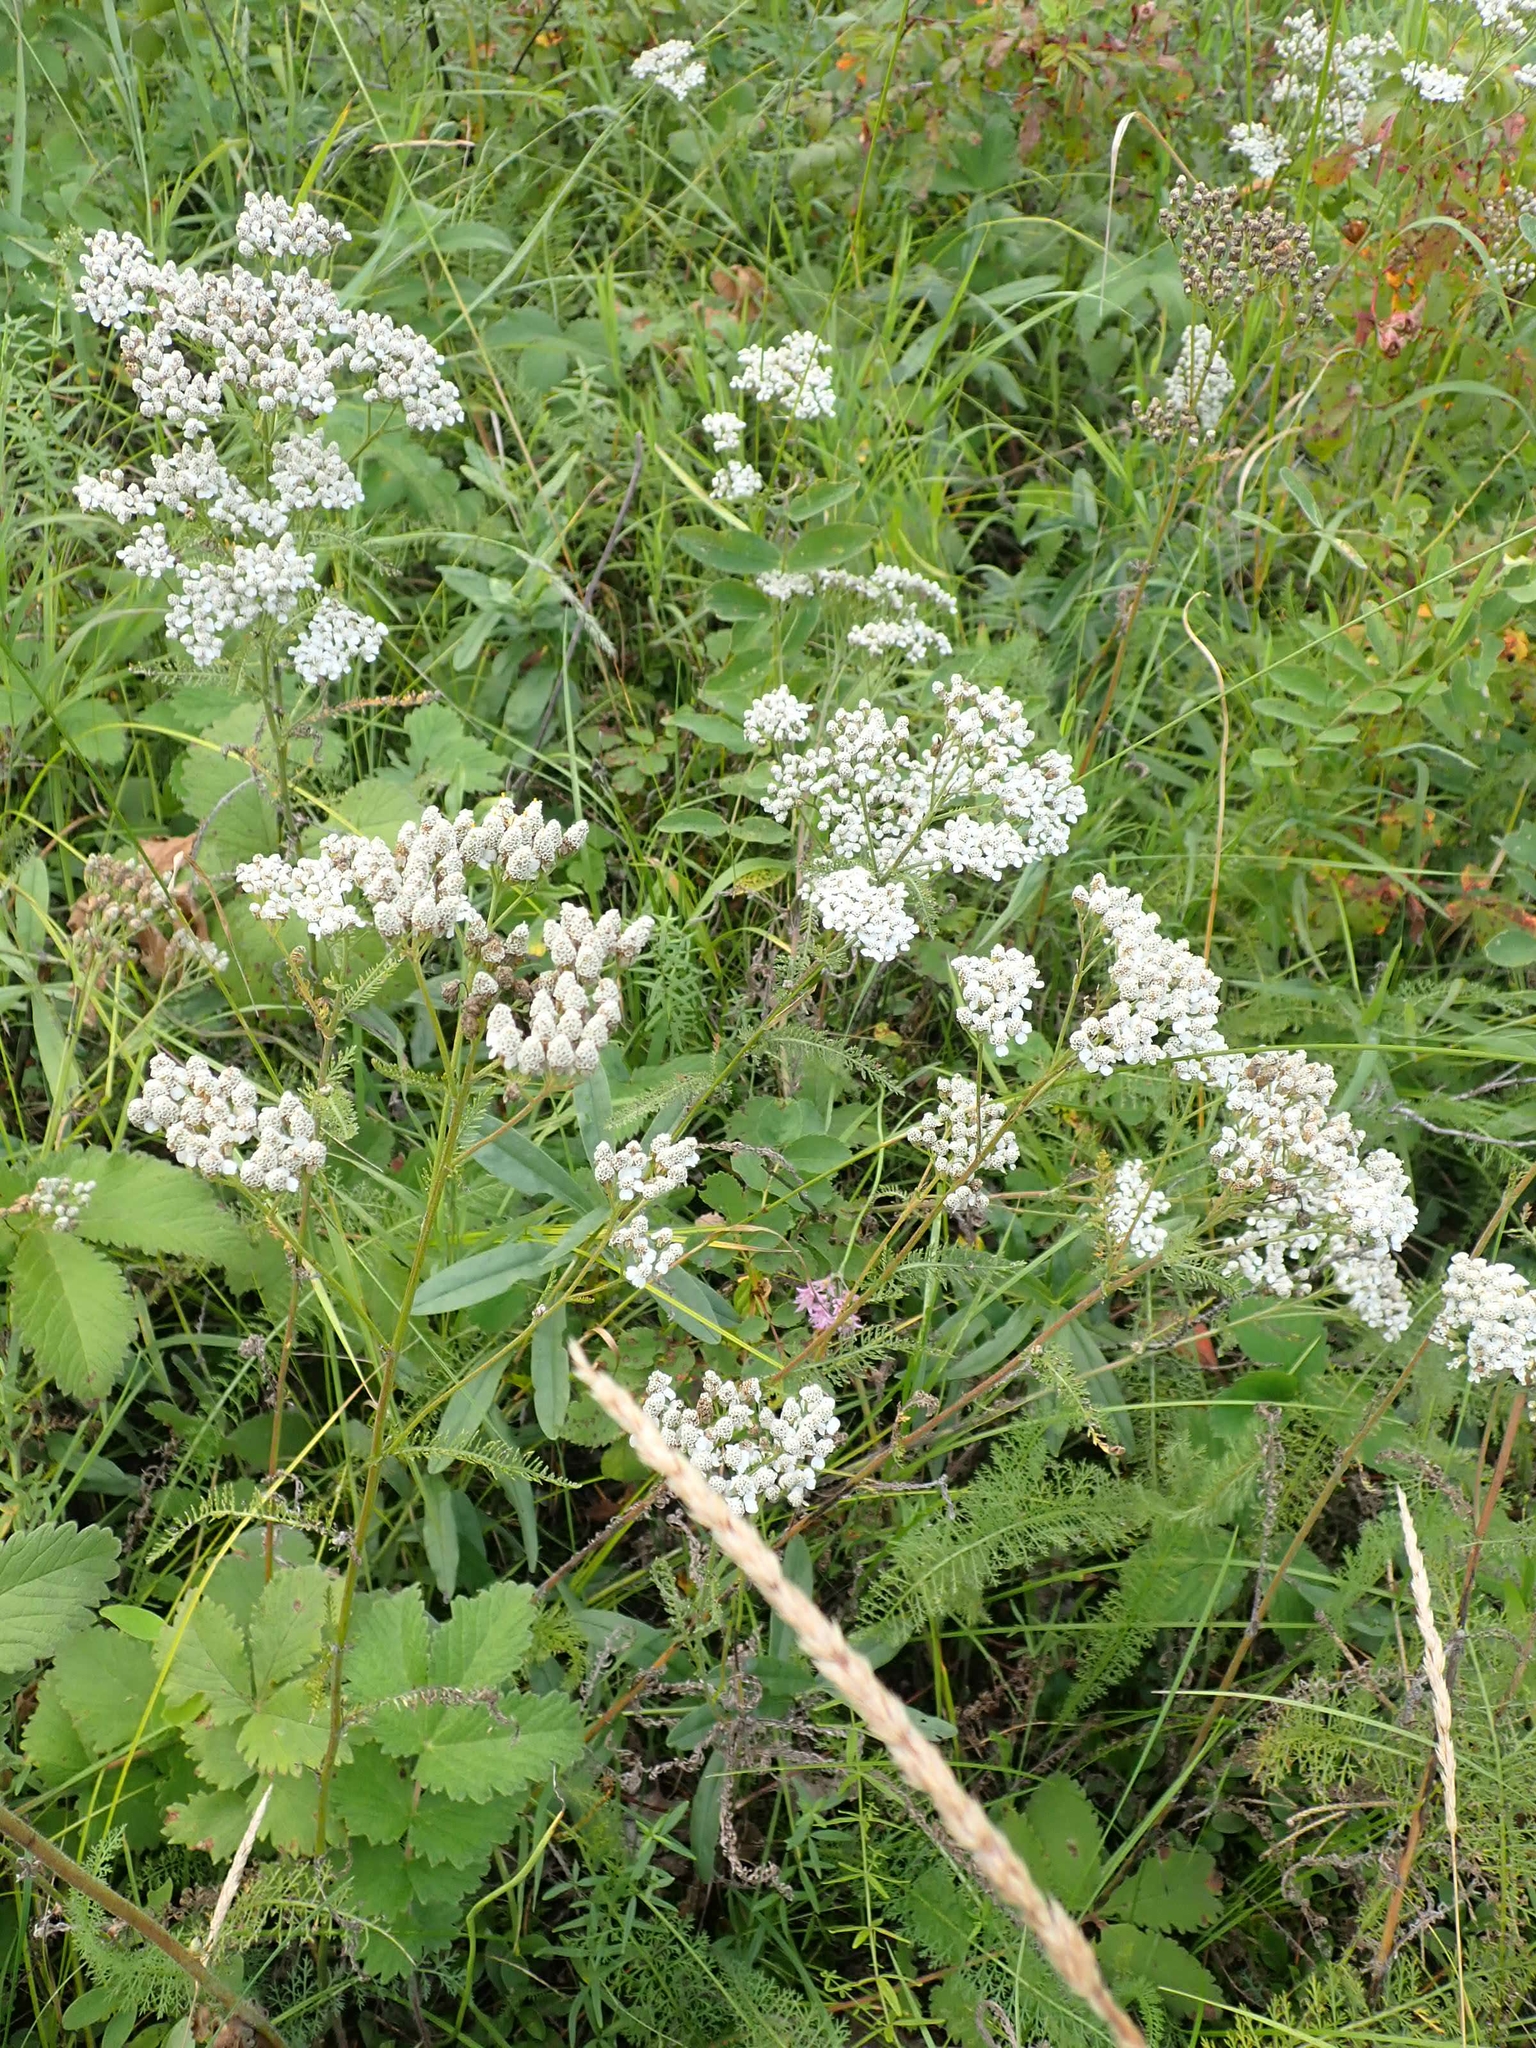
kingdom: Plantae
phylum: Tracheophyta
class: Magnoliopsida
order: Asterales
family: Asteraceae
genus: Achillea
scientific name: Achillea millefolium
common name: Yarrow
